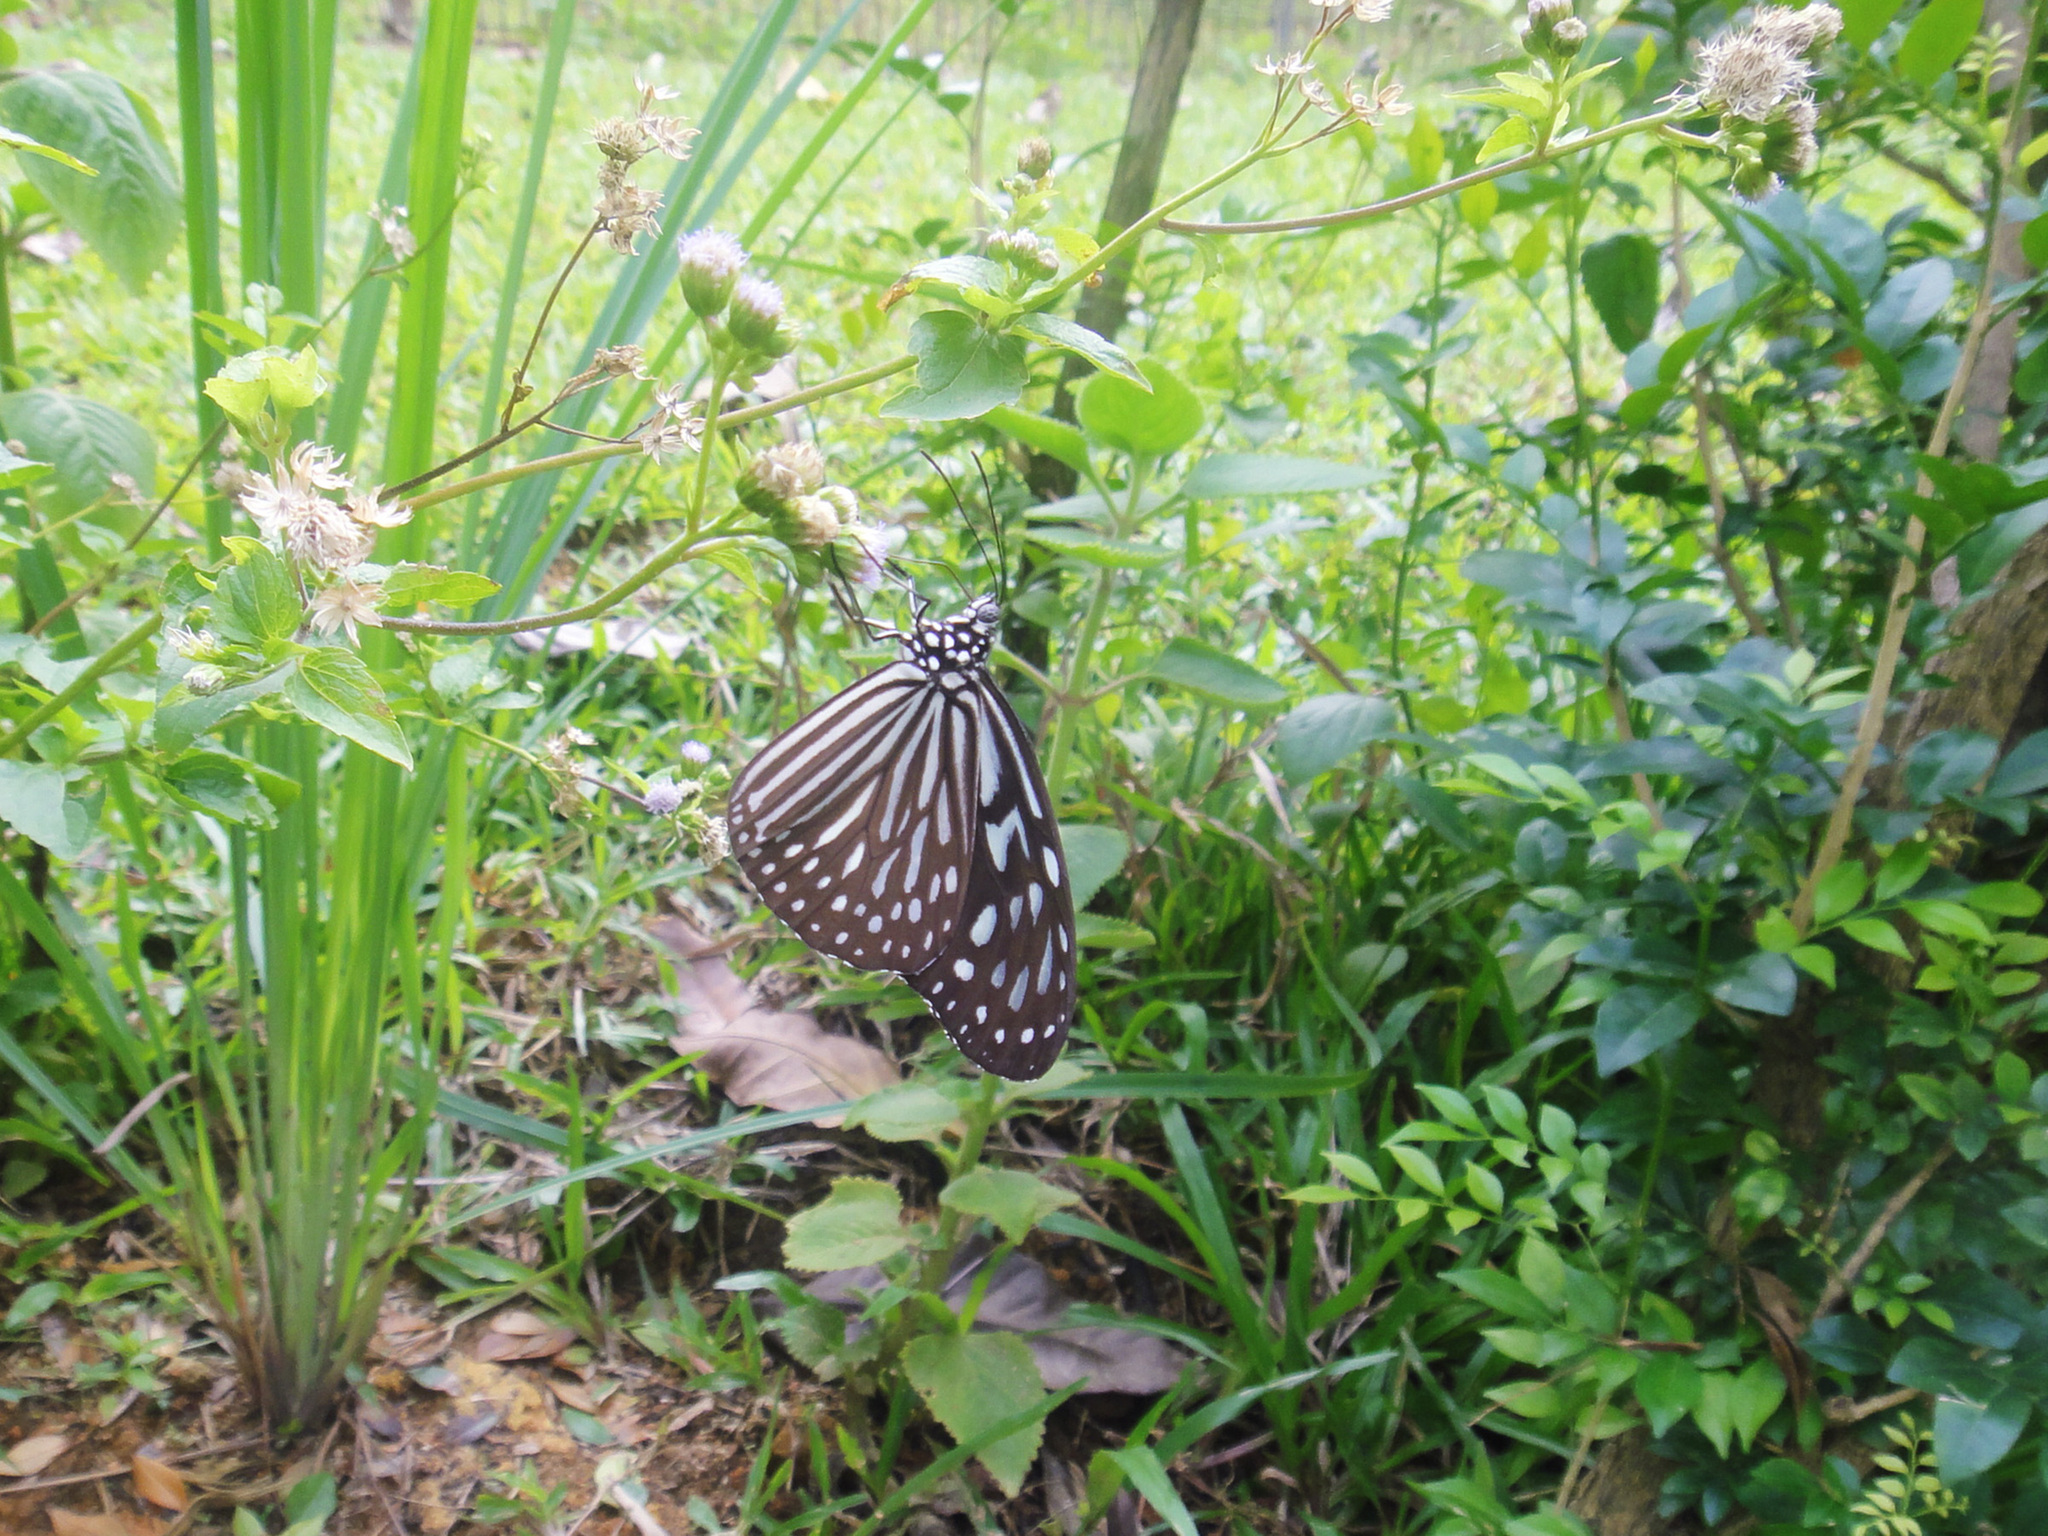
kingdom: Animalia
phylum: Arthropoda
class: Insecta
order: Lepidoptera
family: Nymphalidae
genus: Ideopsis
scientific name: Ideopsis vulgaris
